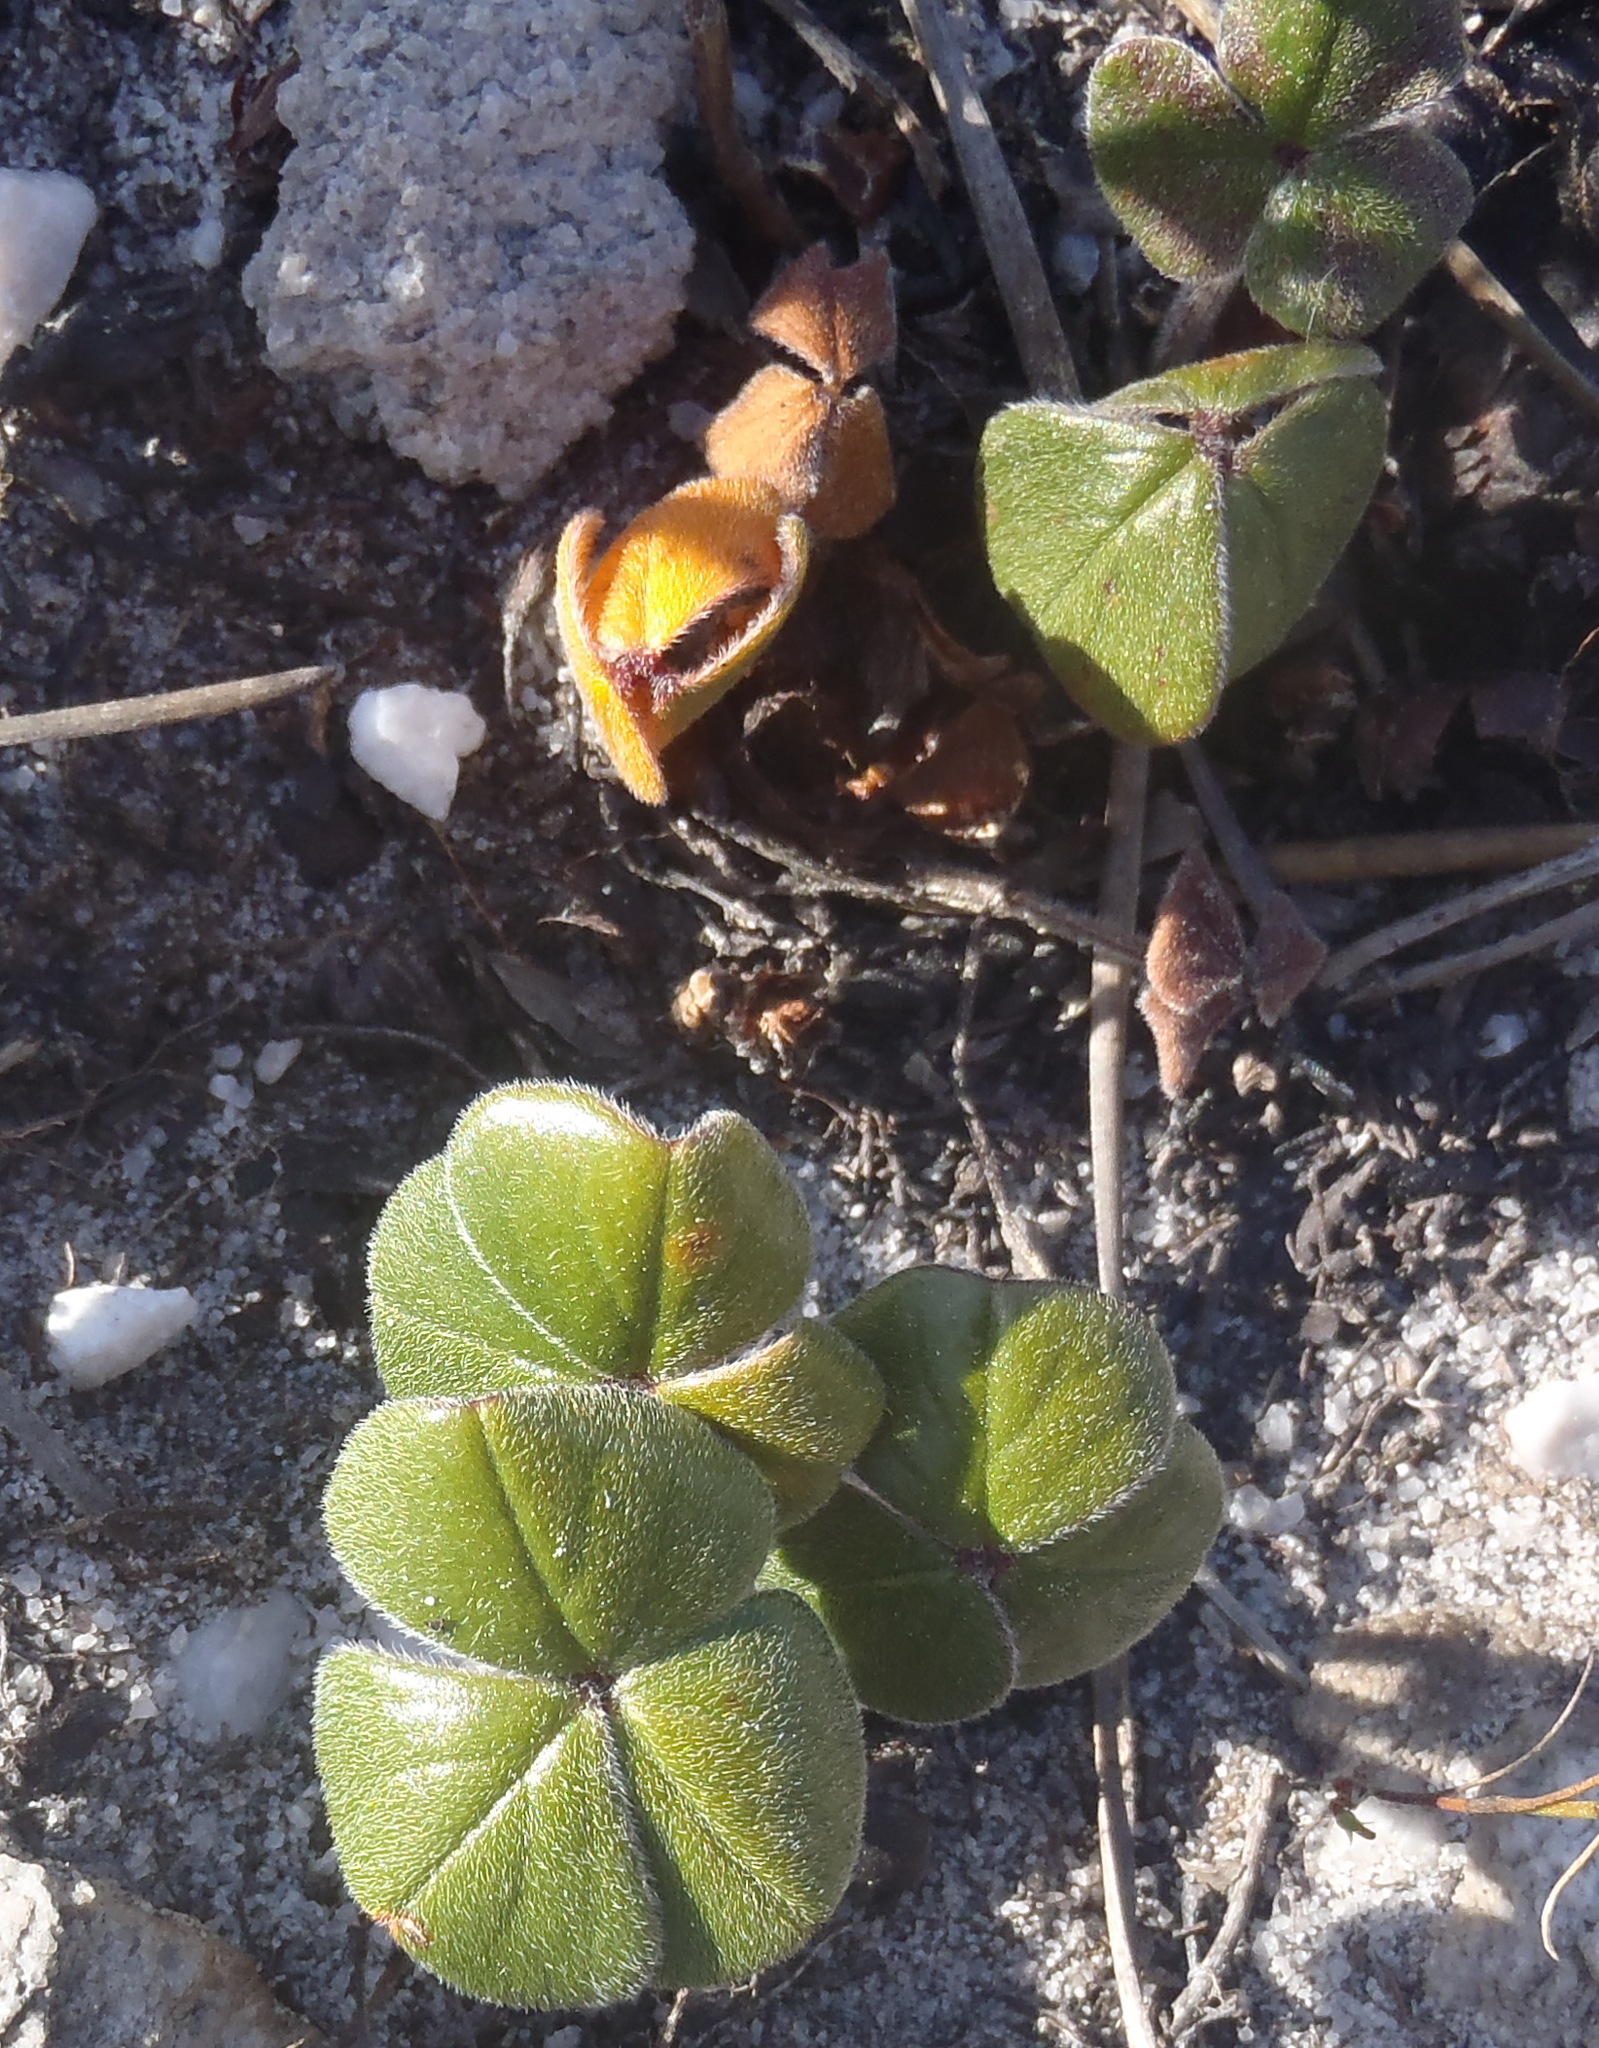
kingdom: Plantae
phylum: Tracheophyta
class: Magnoliopsida
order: Oxalidales
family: Oxalidaceae
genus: Oxalis
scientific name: Oxalis truncatula
